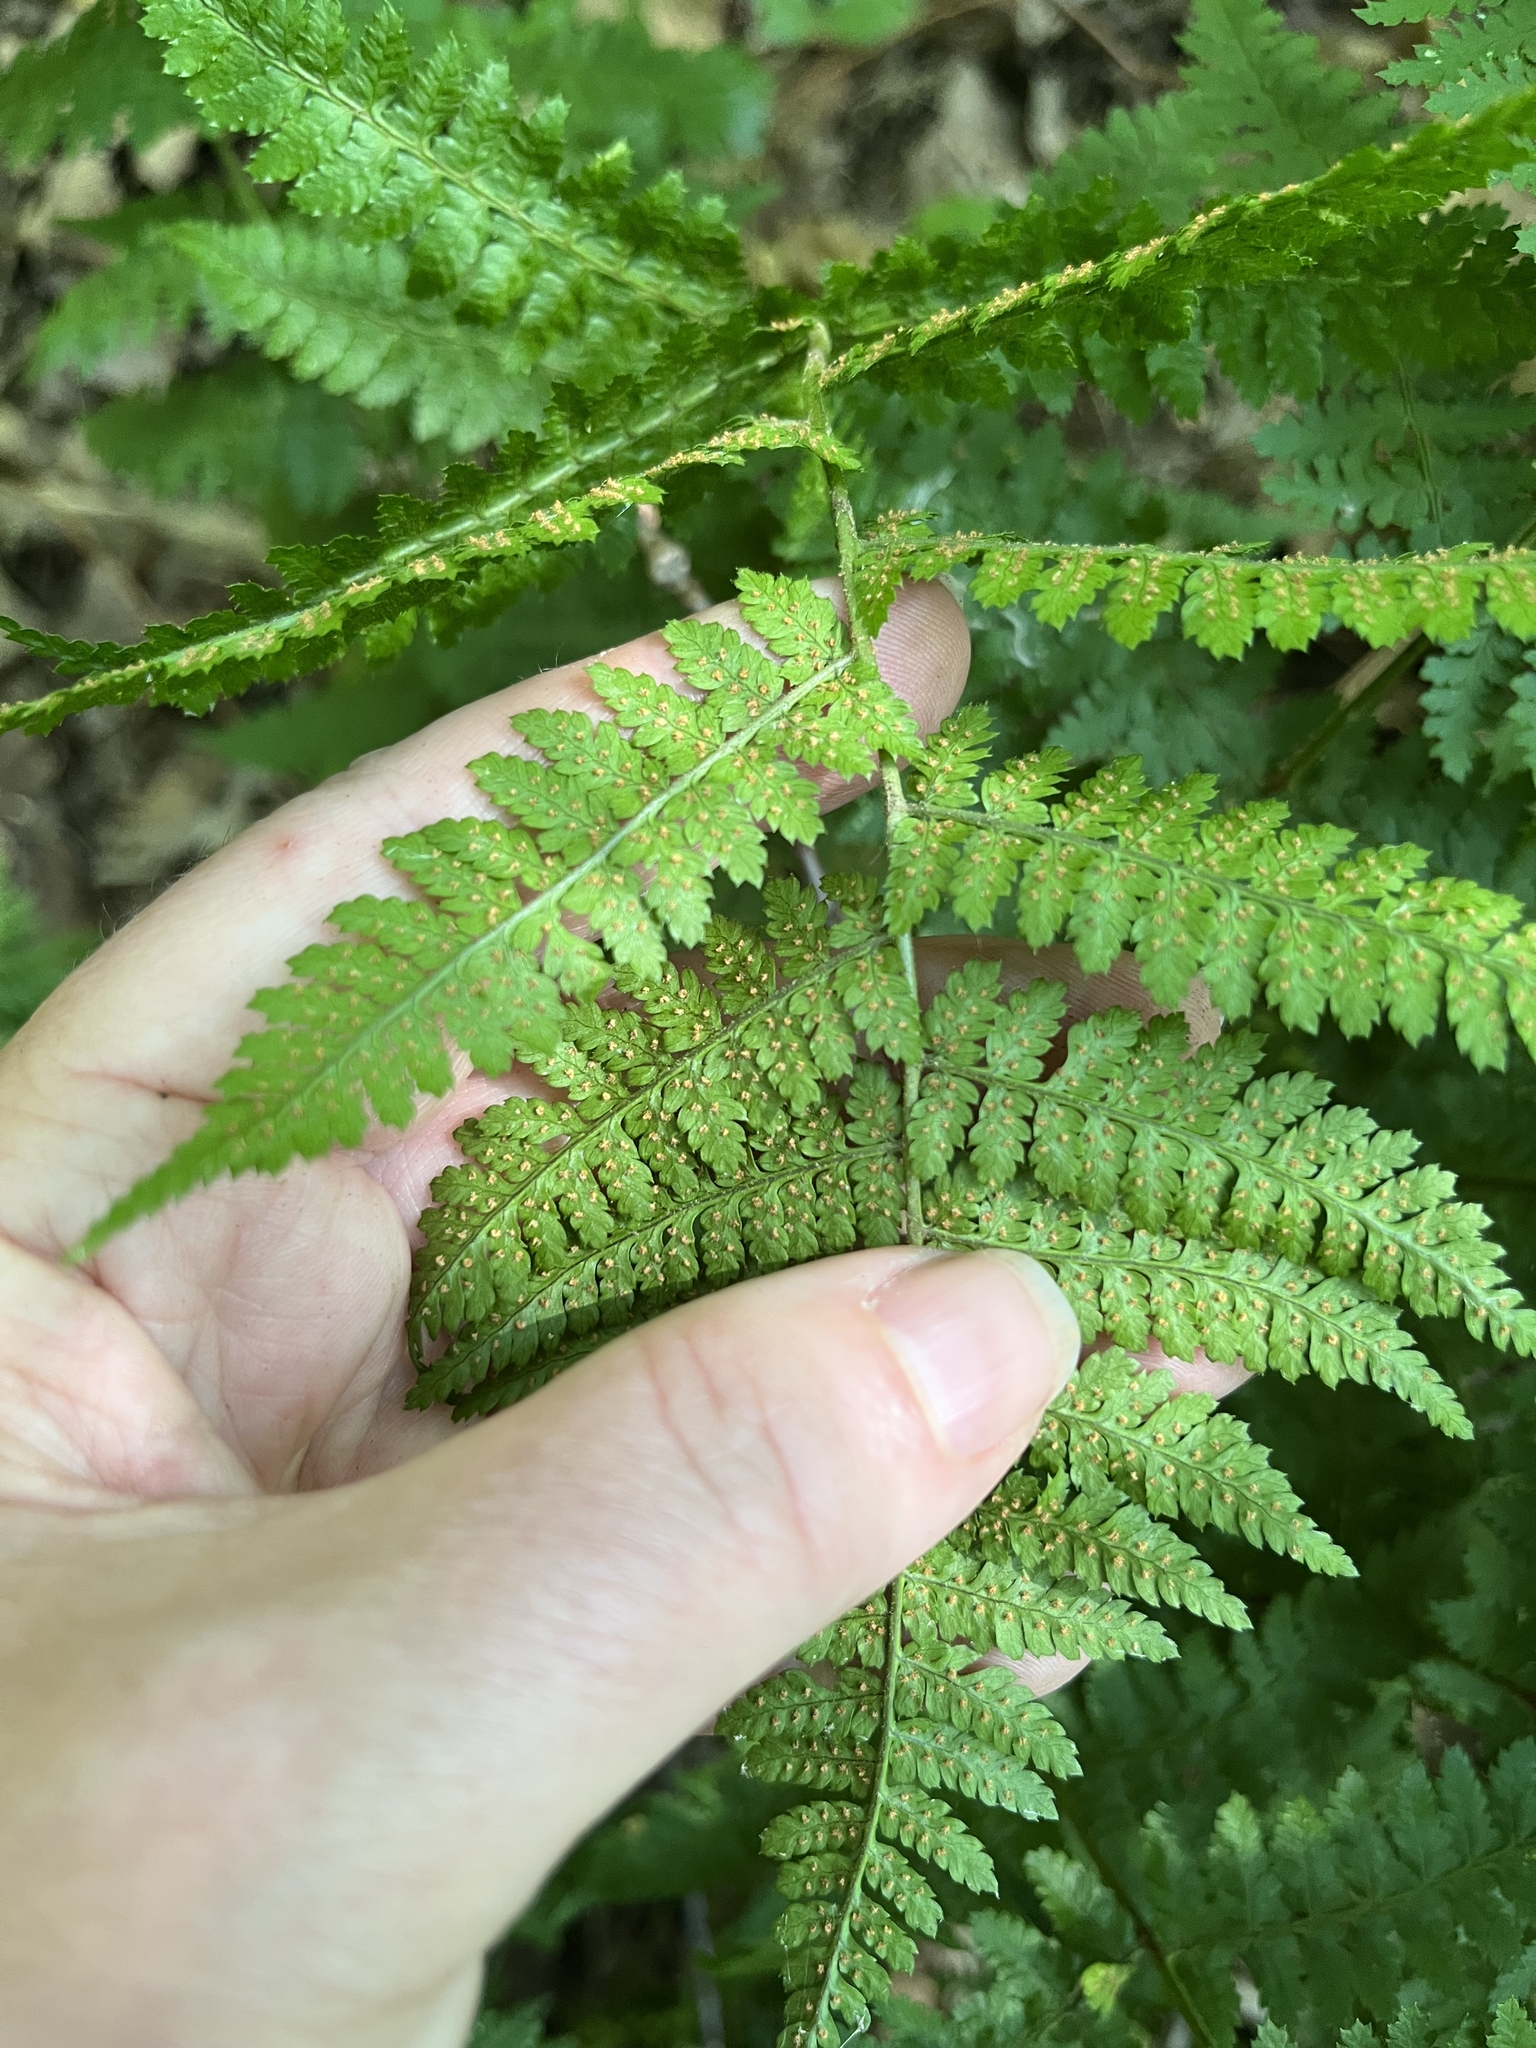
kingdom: Plantae
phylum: Tracheophyta
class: Polypodiopsida
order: Polypodiales
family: Dryopteridaceae
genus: Dryopteris
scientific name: Dryopteris intermedia
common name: Evergreen wood fern
